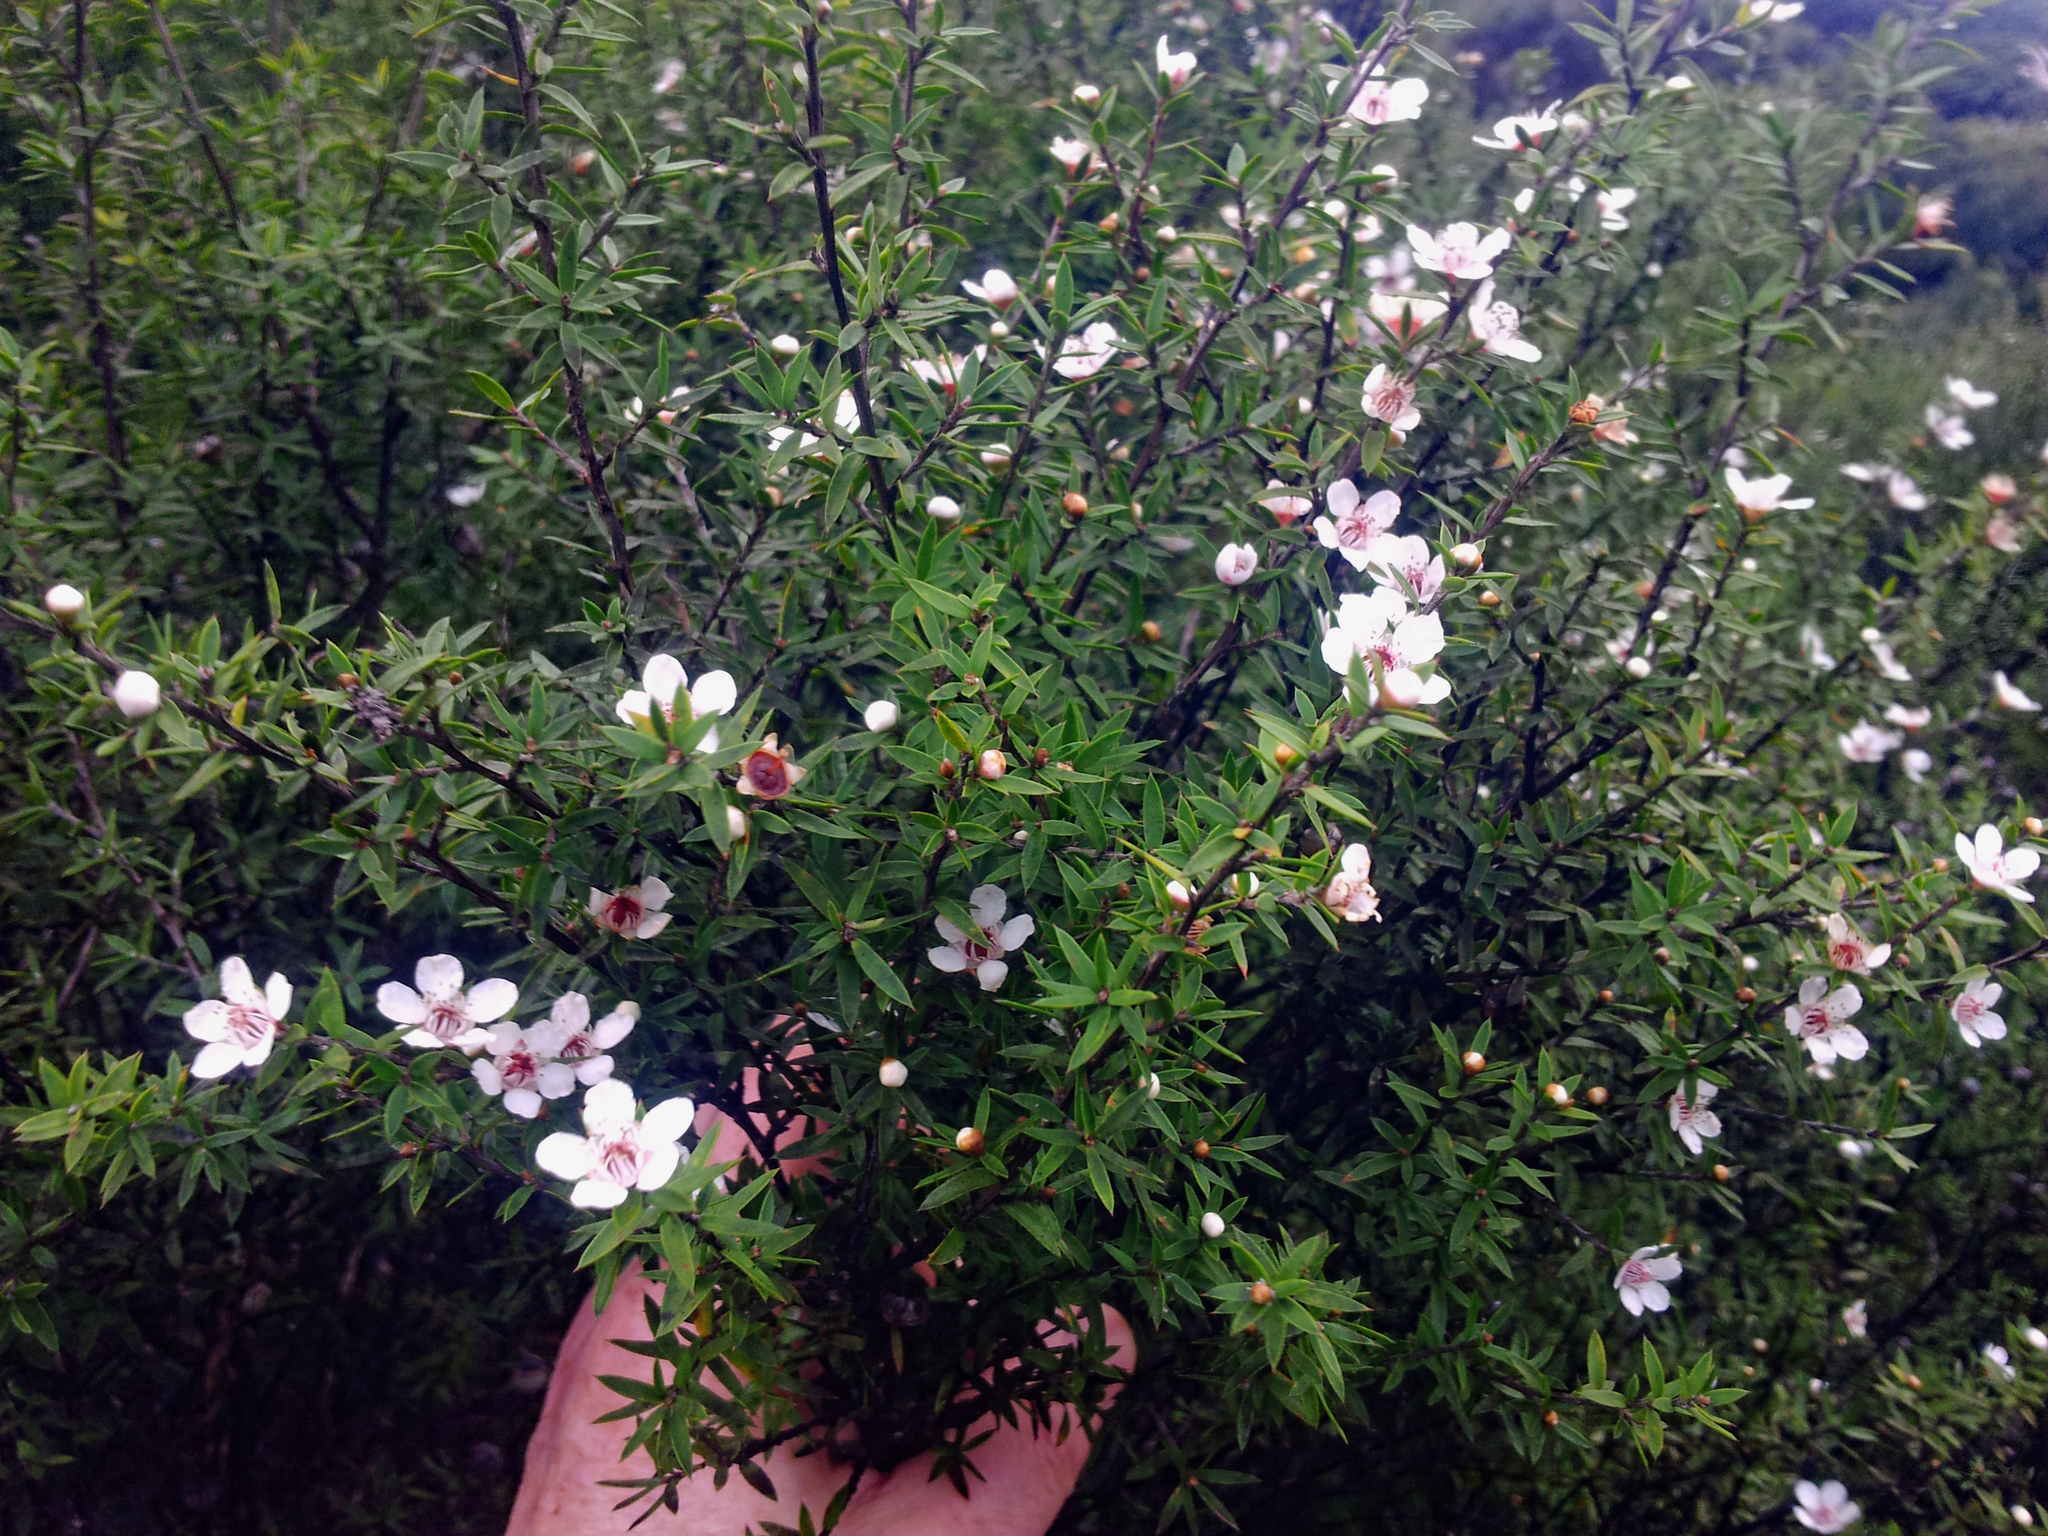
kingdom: Plantae
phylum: Tracheophyta
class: Magnoliopsida
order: Myrtales
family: Myrtaceae
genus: Leptospermum
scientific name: Leptospermum scoparium
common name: Broom tea-tree
